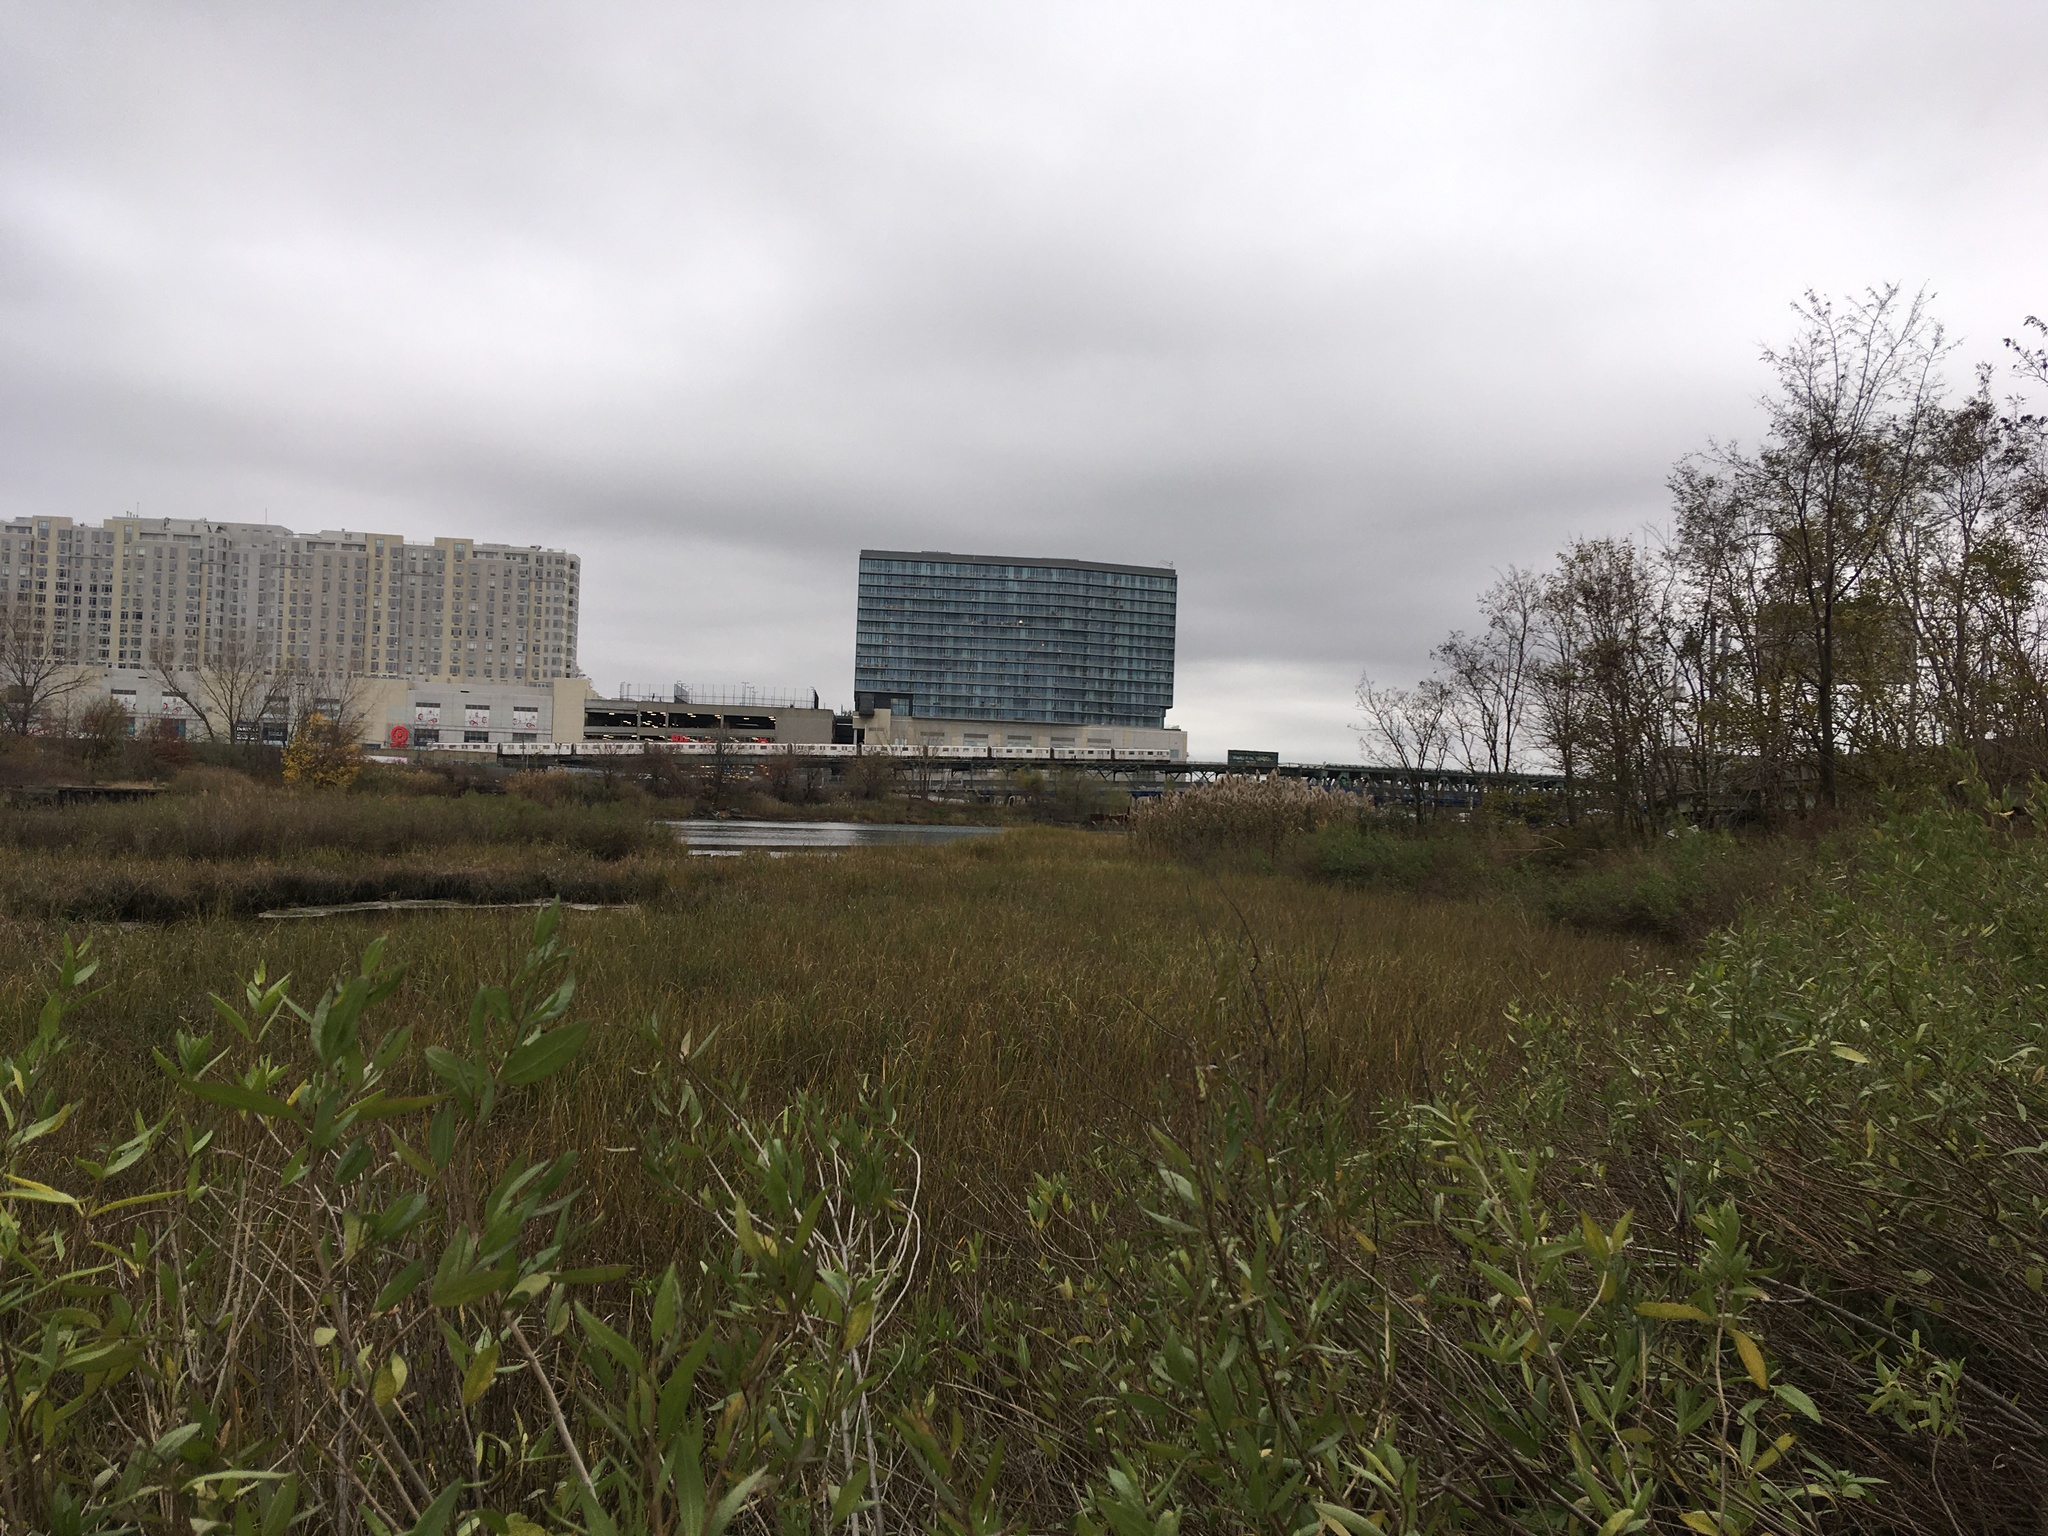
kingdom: Plantae
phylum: Tracheophyta
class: Magnoliopsida
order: Asterales
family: Asteraceae
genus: Iva
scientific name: Iva frutescens
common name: Big-leaved marsh-elder
